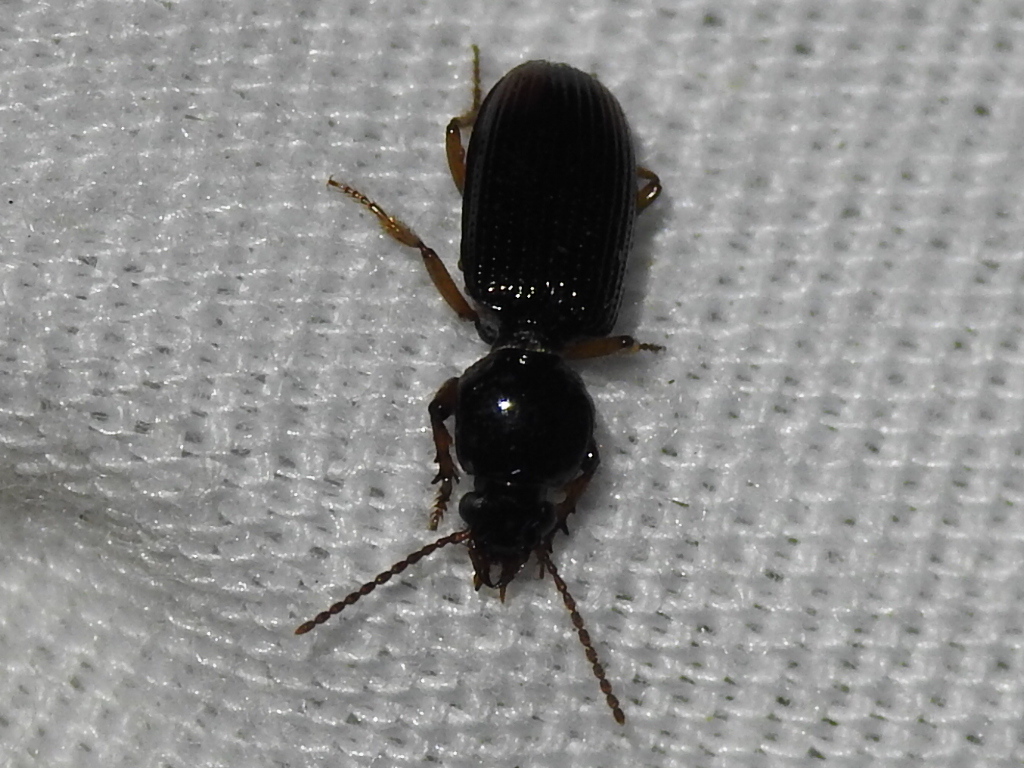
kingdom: Animalia
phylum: Arthropoda
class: Insecta
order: Coleoptera
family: Carabidae
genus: Aspidoglossa
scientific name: Aspidoglossa subangulata
